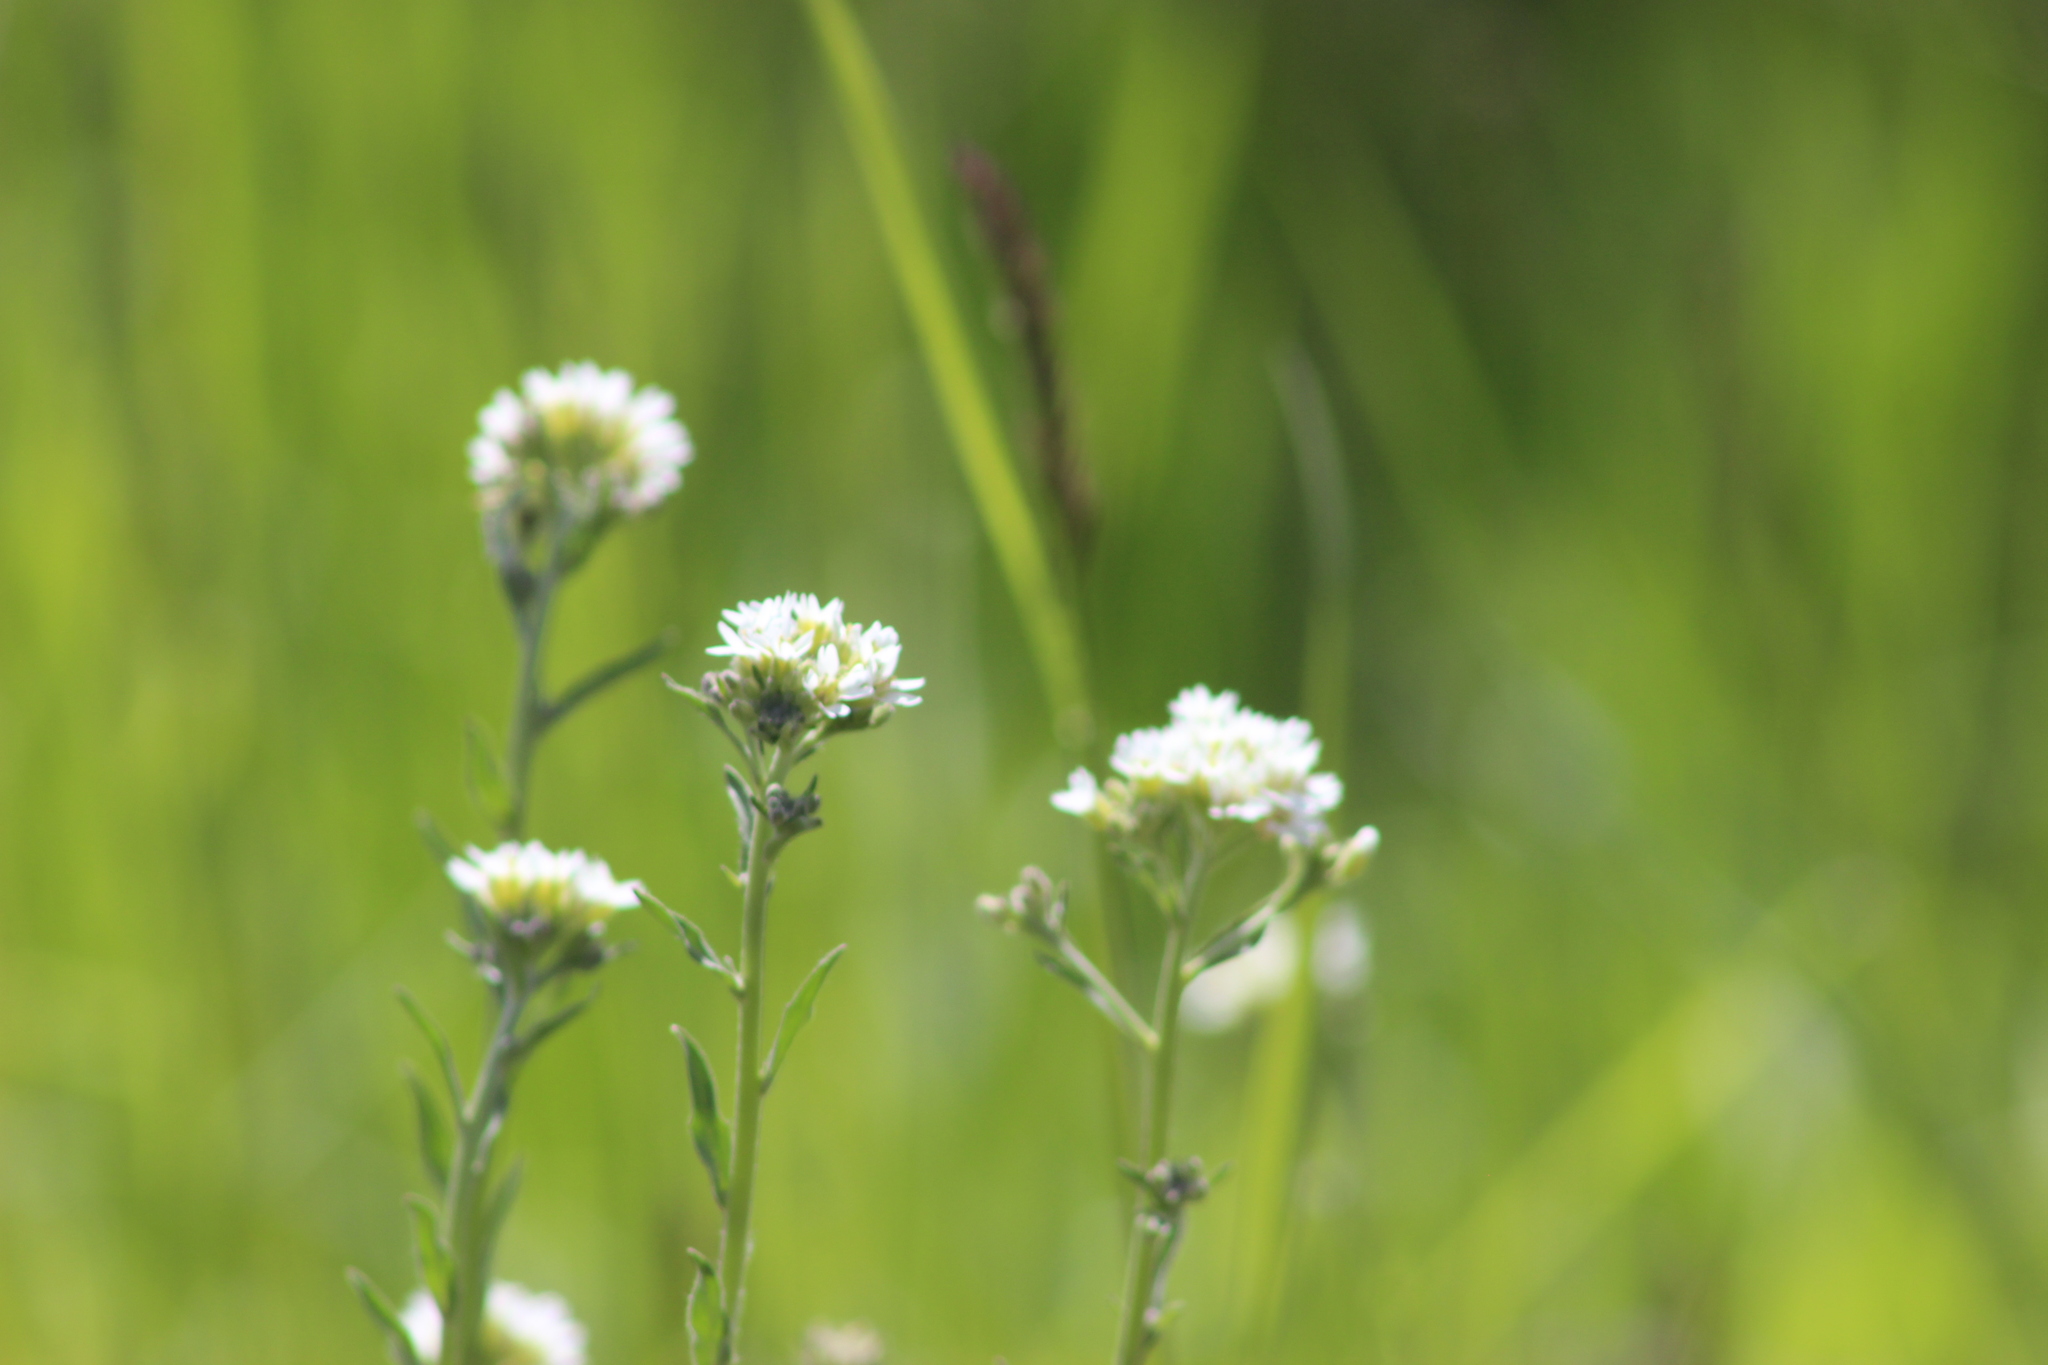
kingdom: Plantae
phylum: Tracheophyta
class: Magnoliopsida
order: Brassicales
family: Brassicaceae
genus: Berteroa
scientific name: Berteroa incana
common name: Hoary alison
